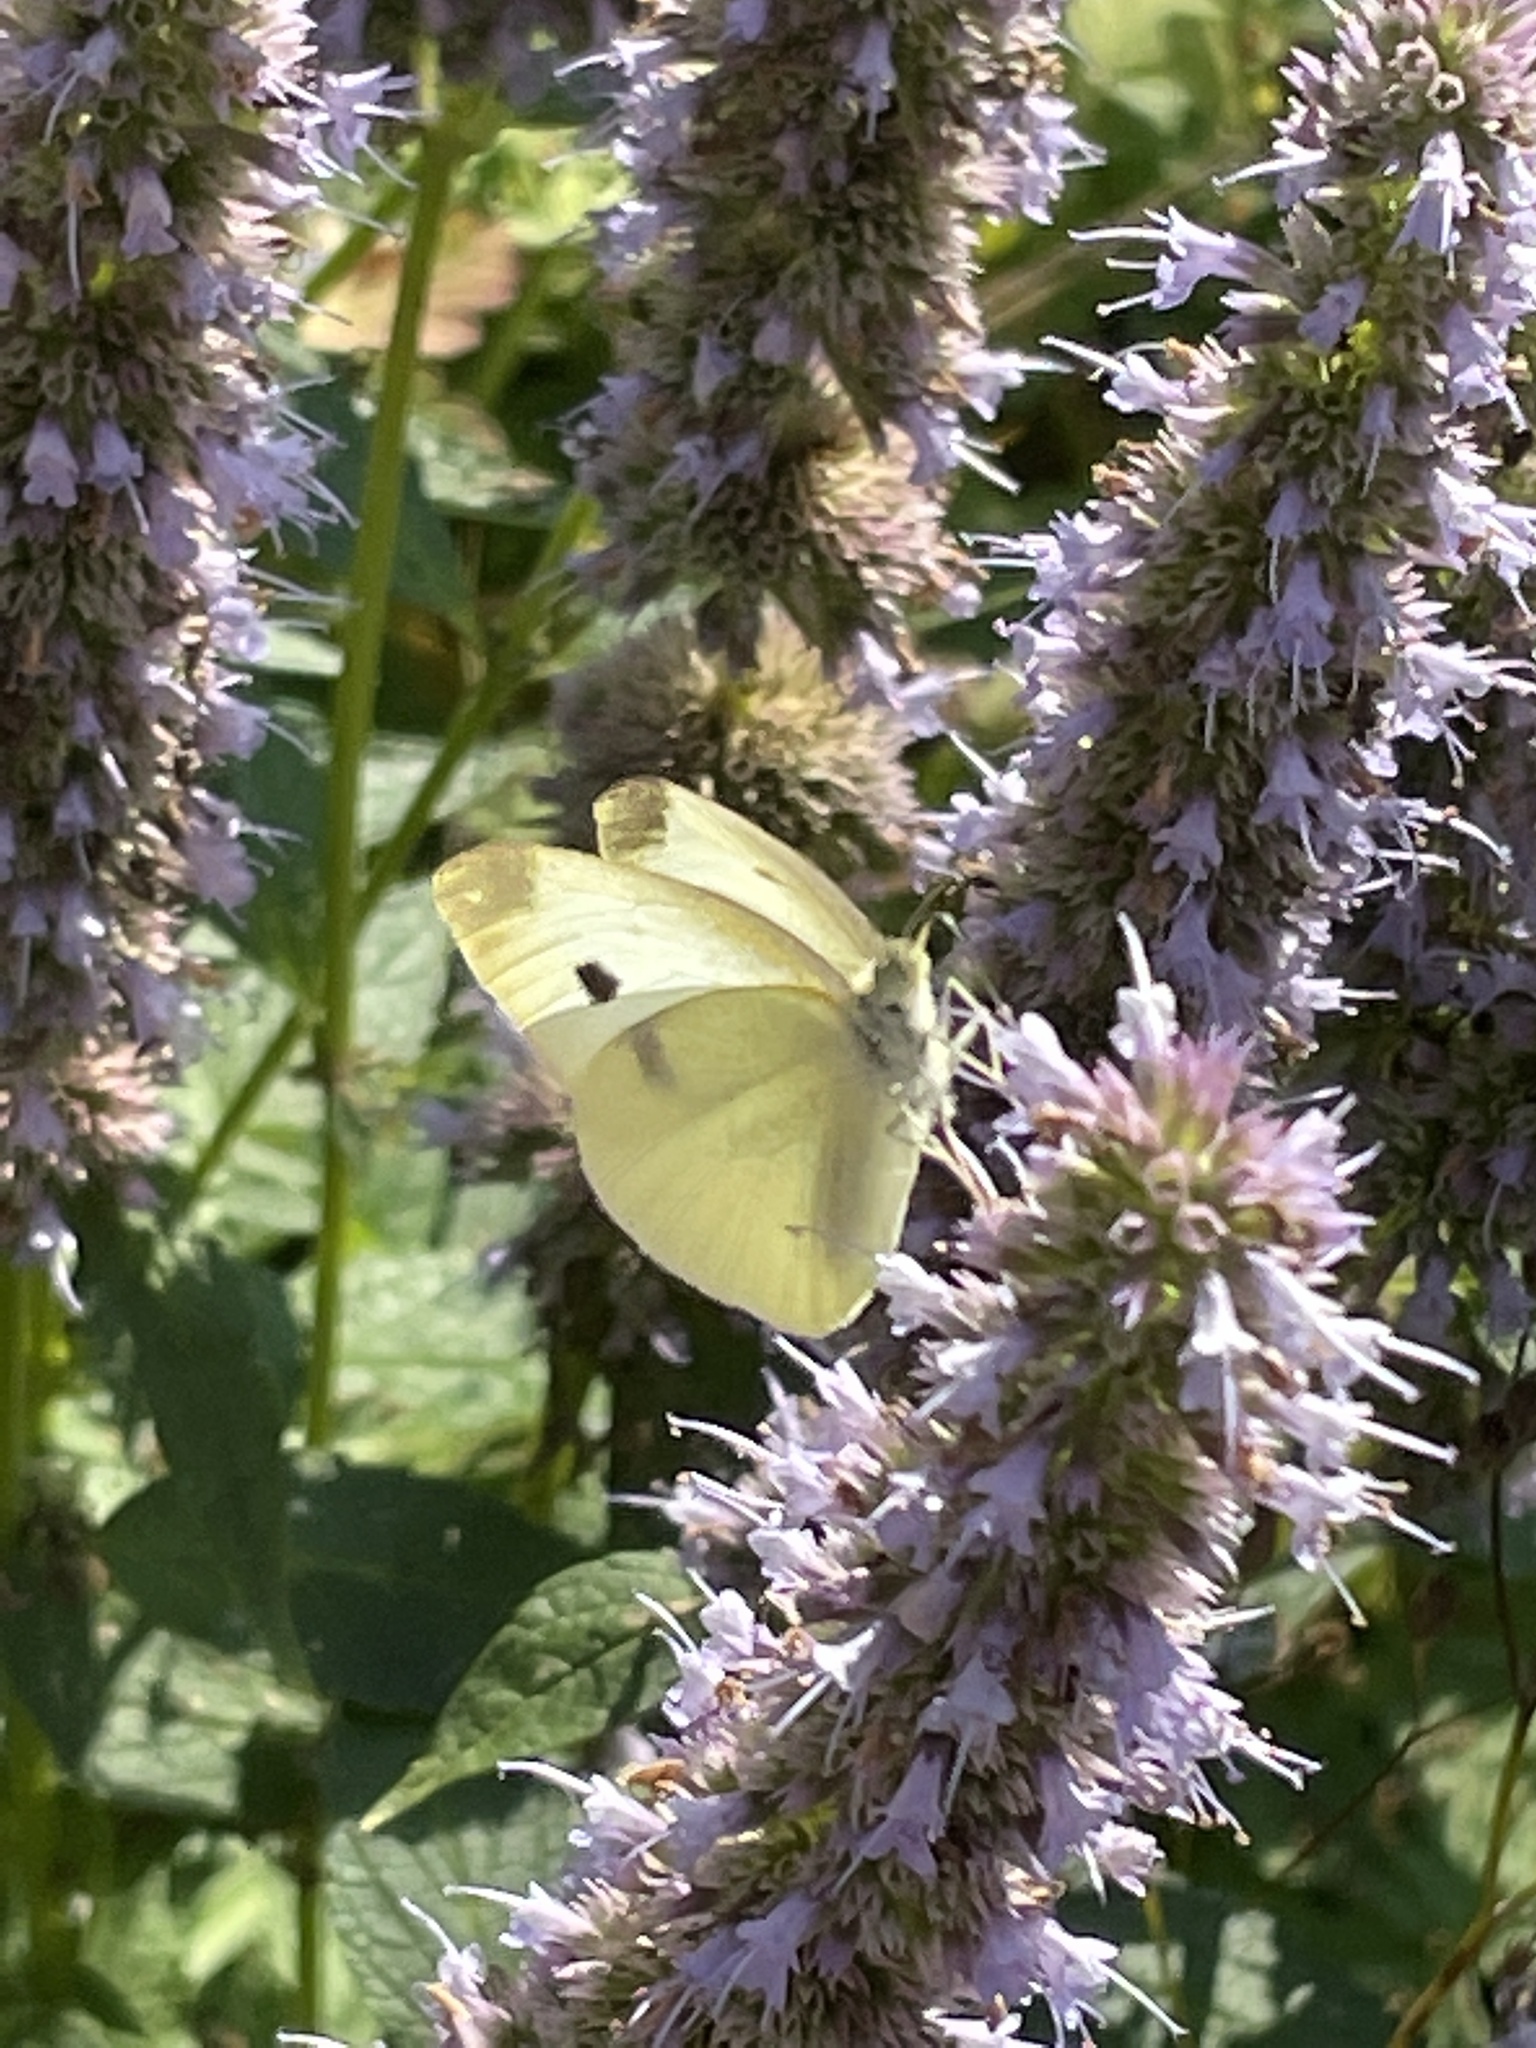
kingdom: Animalia
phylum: Arthropoda
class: Insecta
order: Lepidoptera
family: Pieridae
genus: Pieris
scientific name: Pieris rapae
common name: Small white
